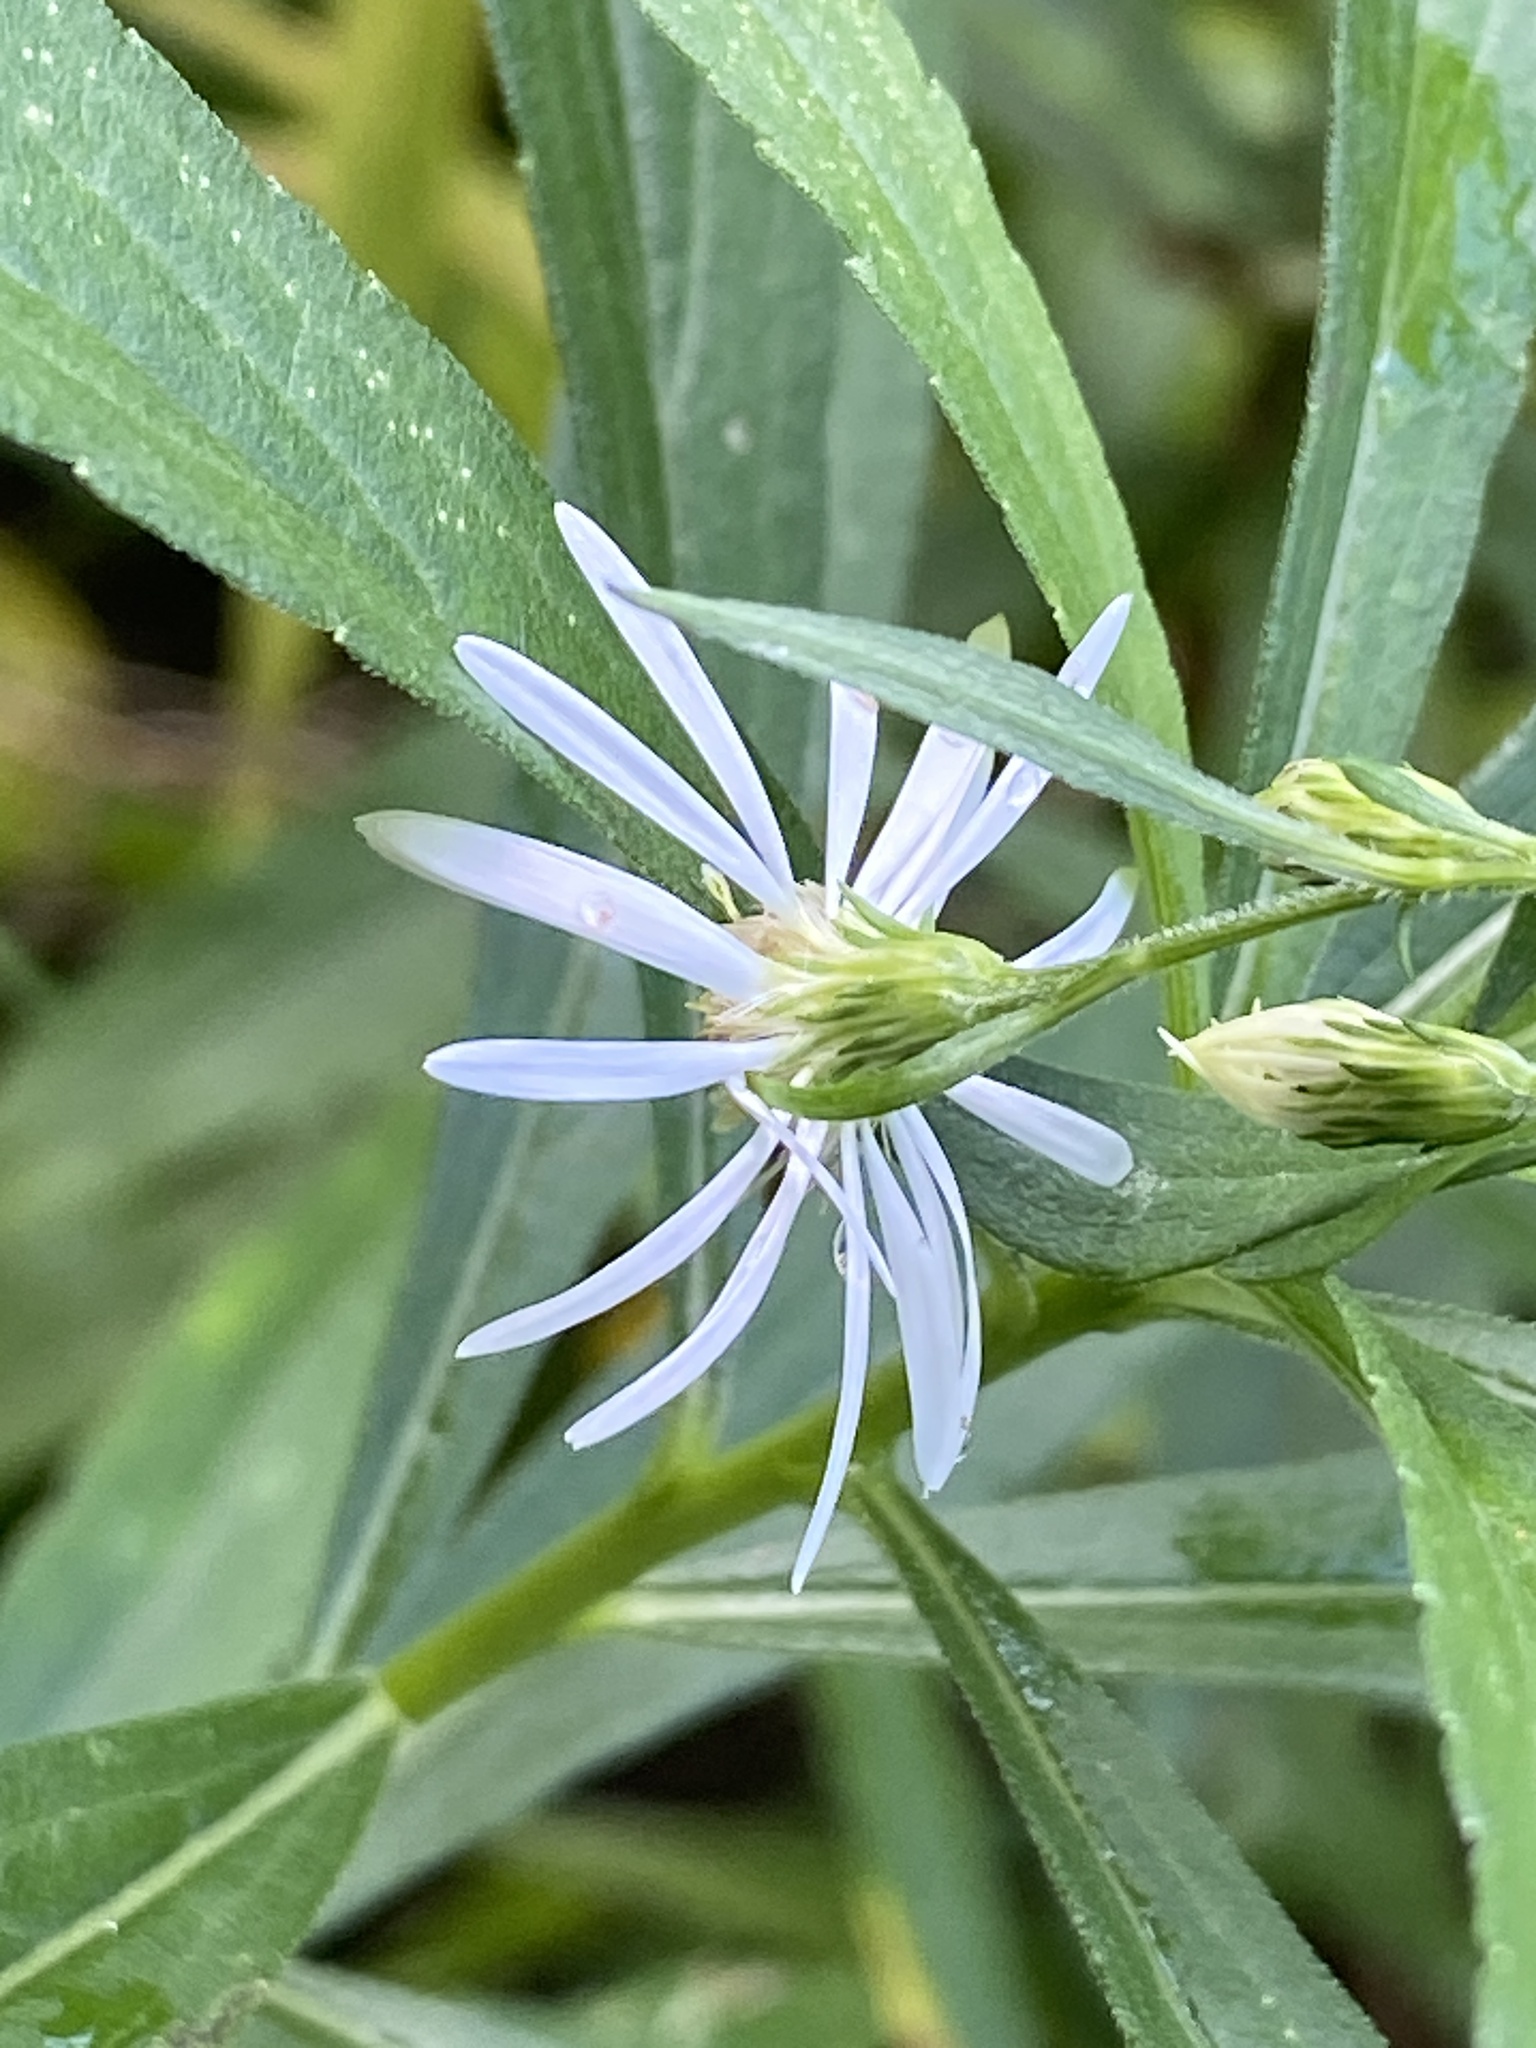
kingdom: Plantae
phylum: Tracheophyta
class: Magnoliopsida
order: Asterales
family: Asteraceae
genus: Symphyotrichum
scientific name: Symphyotrichum lanceolatum
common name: Panicled aster
